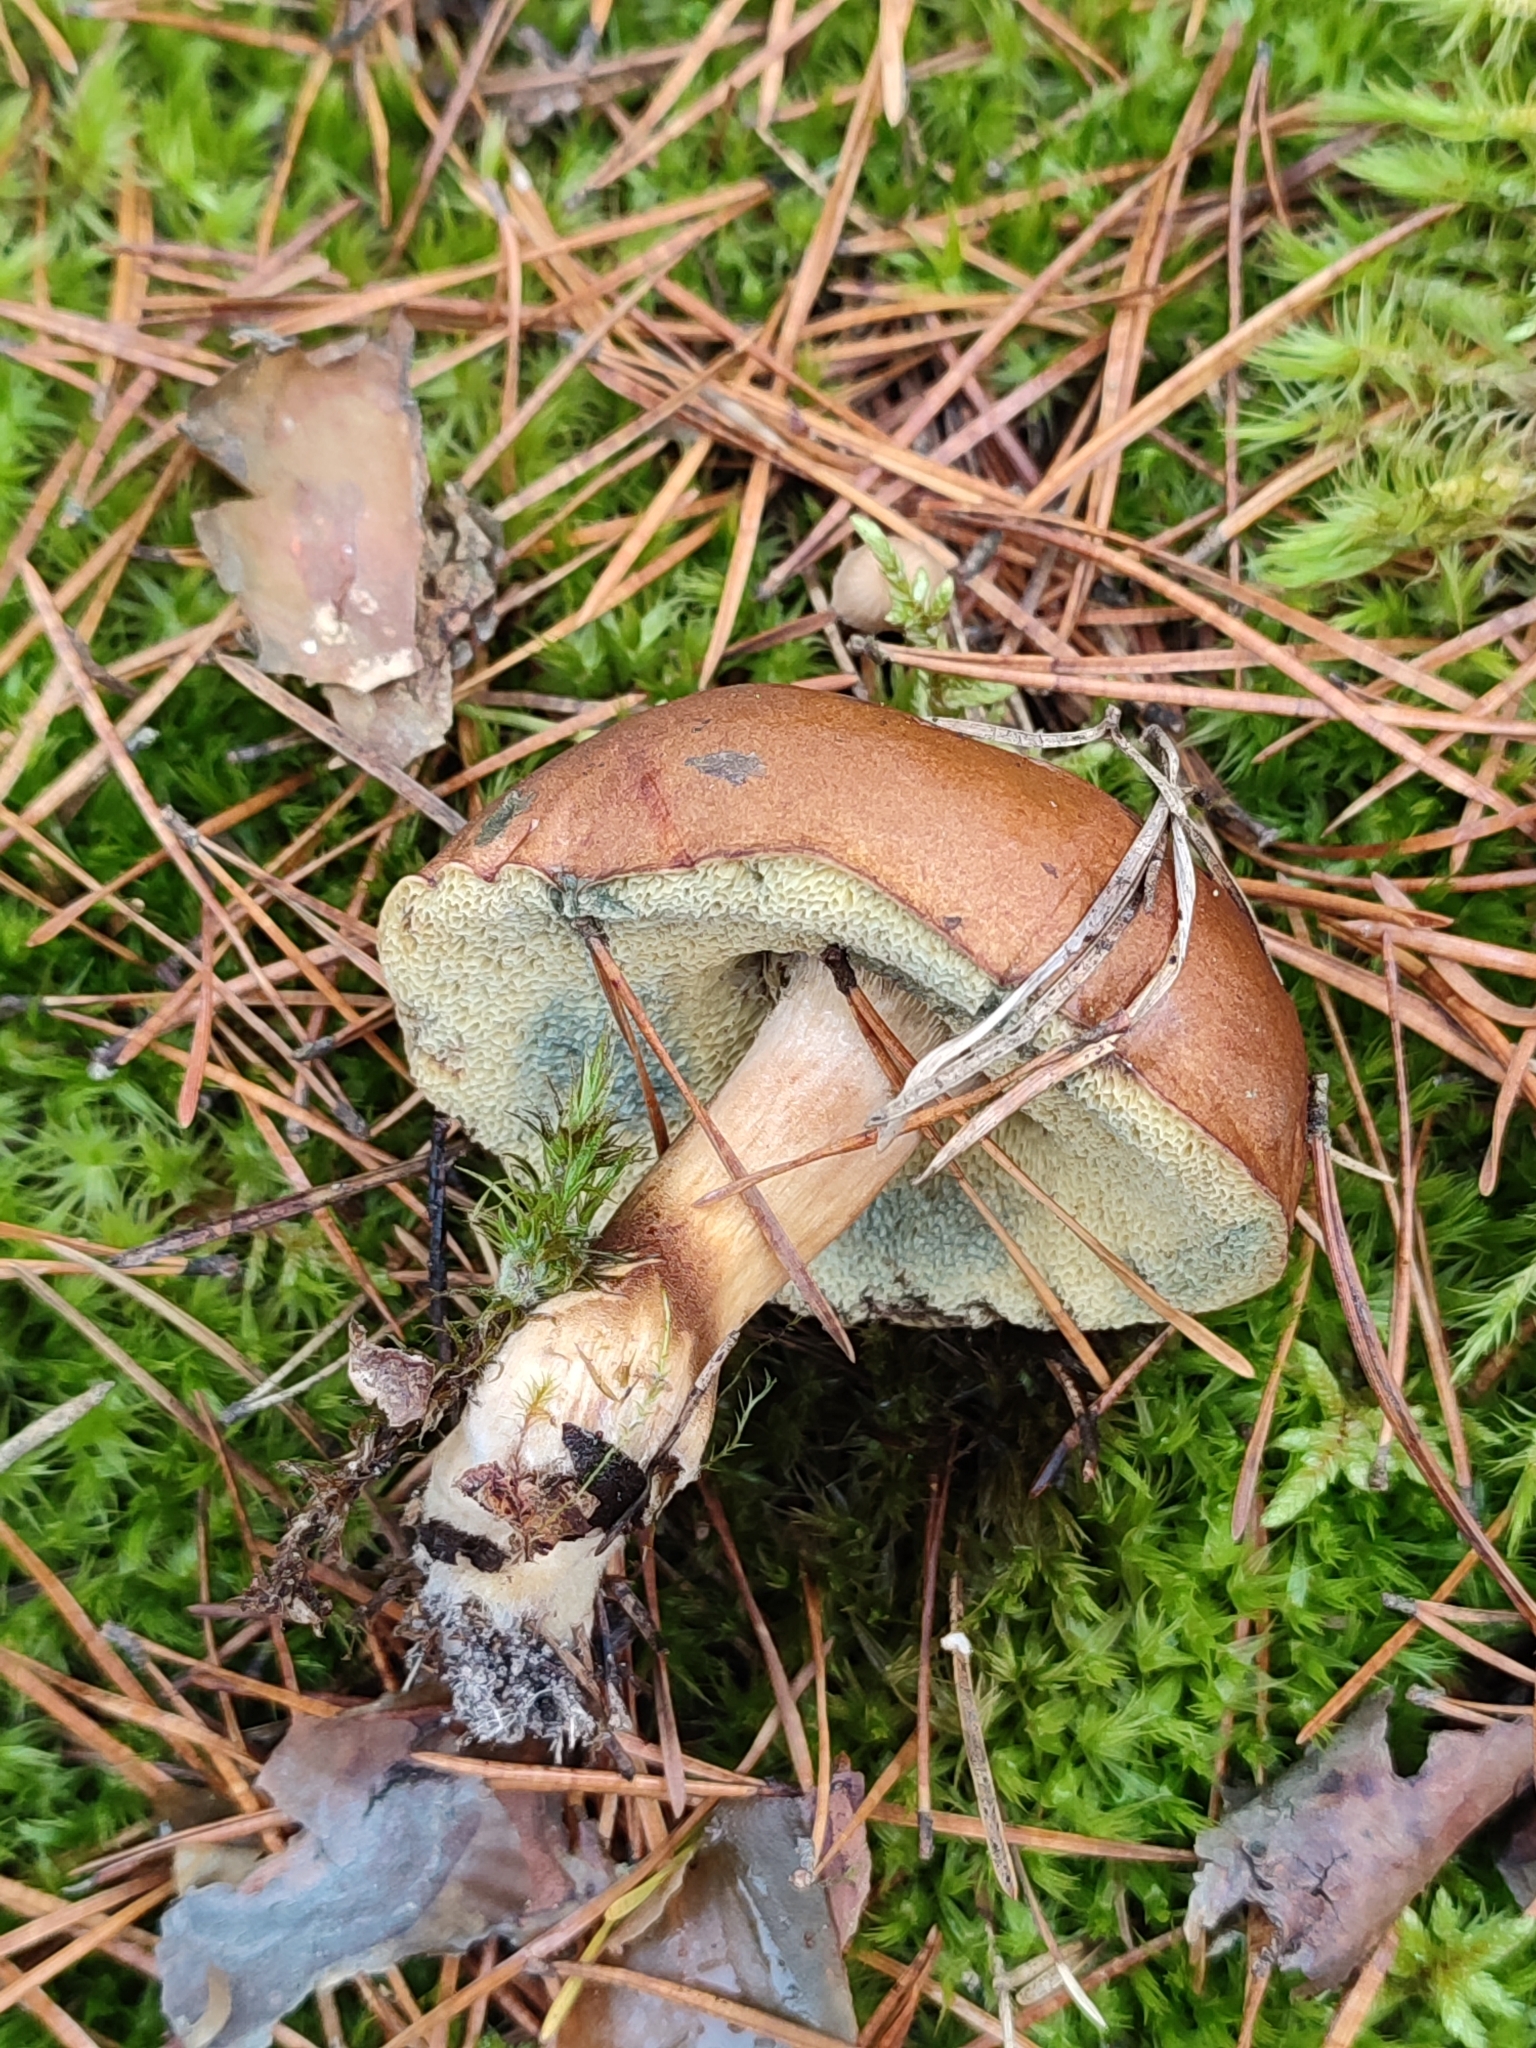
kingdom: Fungi
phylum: Basidiomycota
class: Agaricomycetes
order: Boletales
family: Boletaceae
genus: Imleria
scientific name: Imleria badia
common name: Bay bolete
